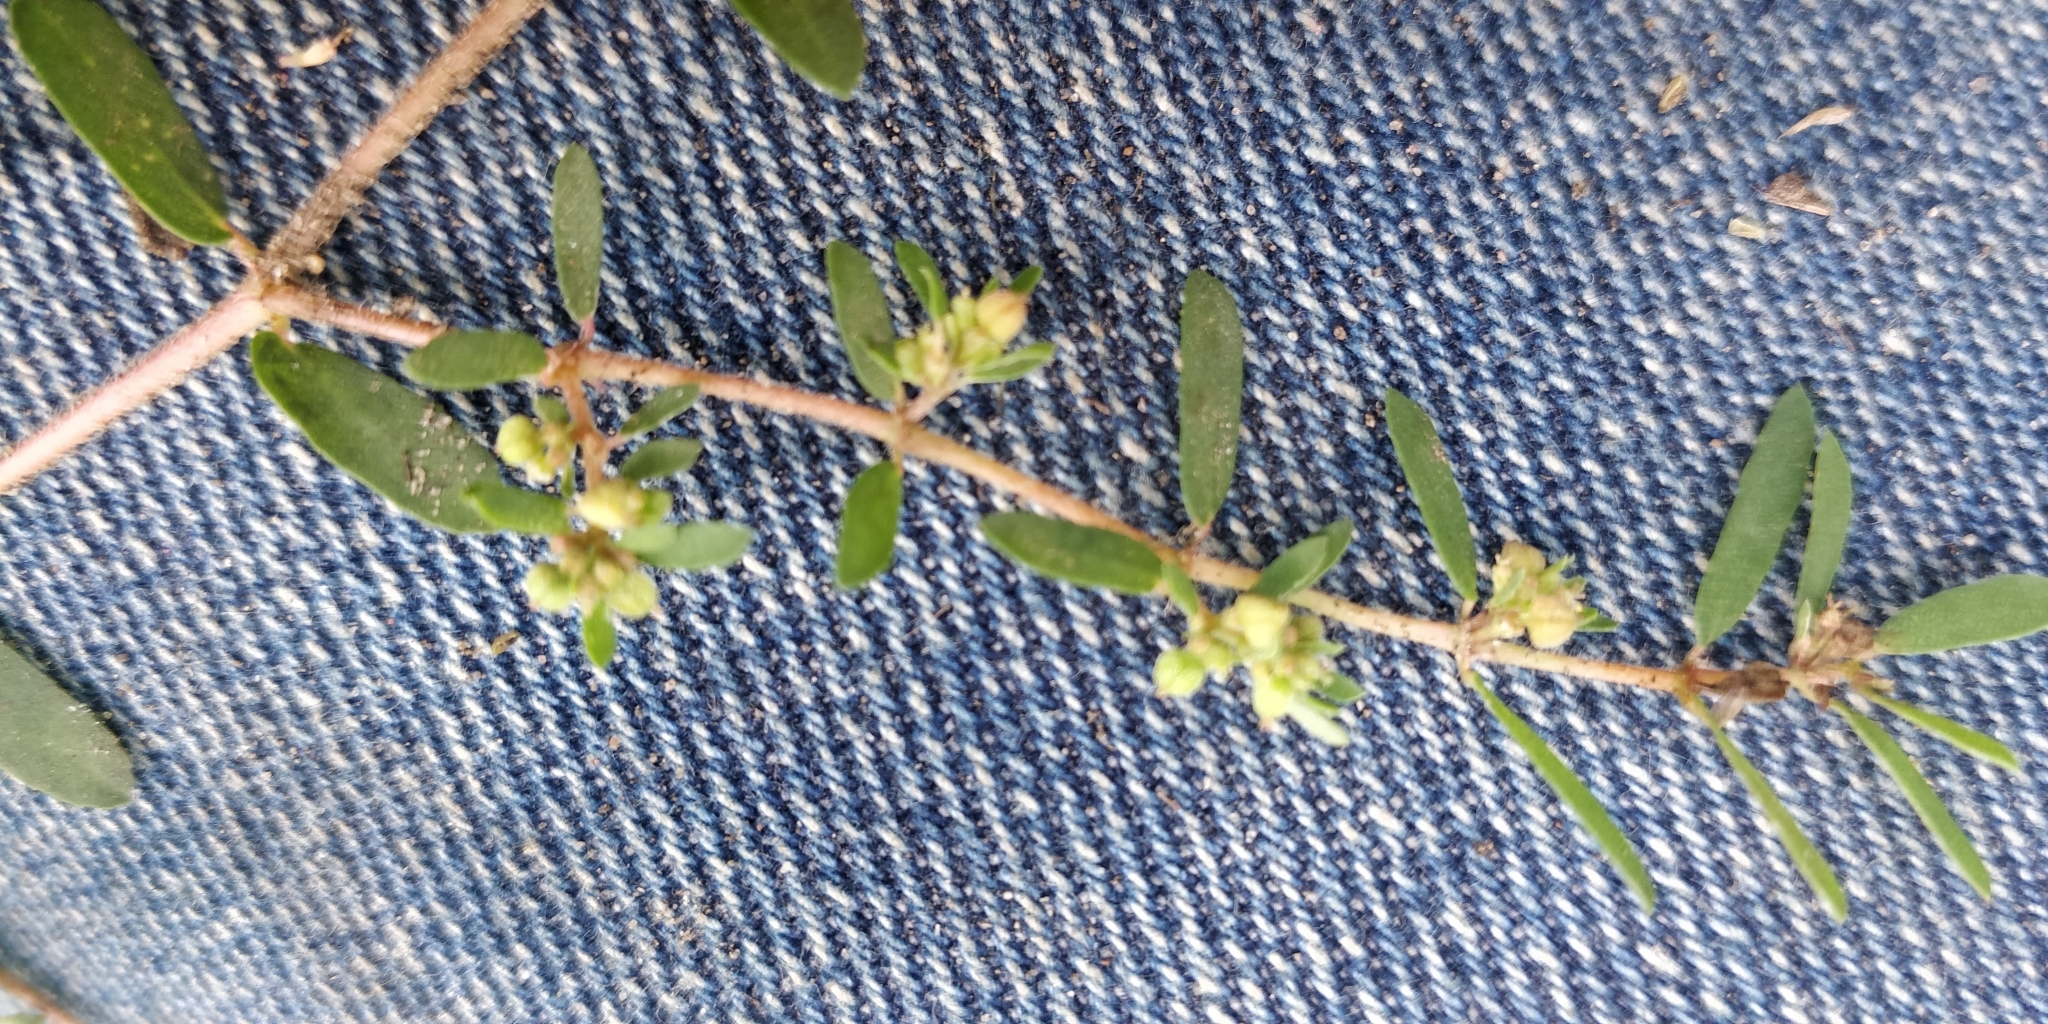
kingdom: Plantae
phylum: Tracheophyta
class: Magnoliopsida
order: Malpighiales
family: Euphorbiaceae
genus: Euphorbia
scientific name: Euphorbia maculata
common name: Spotted spurge
